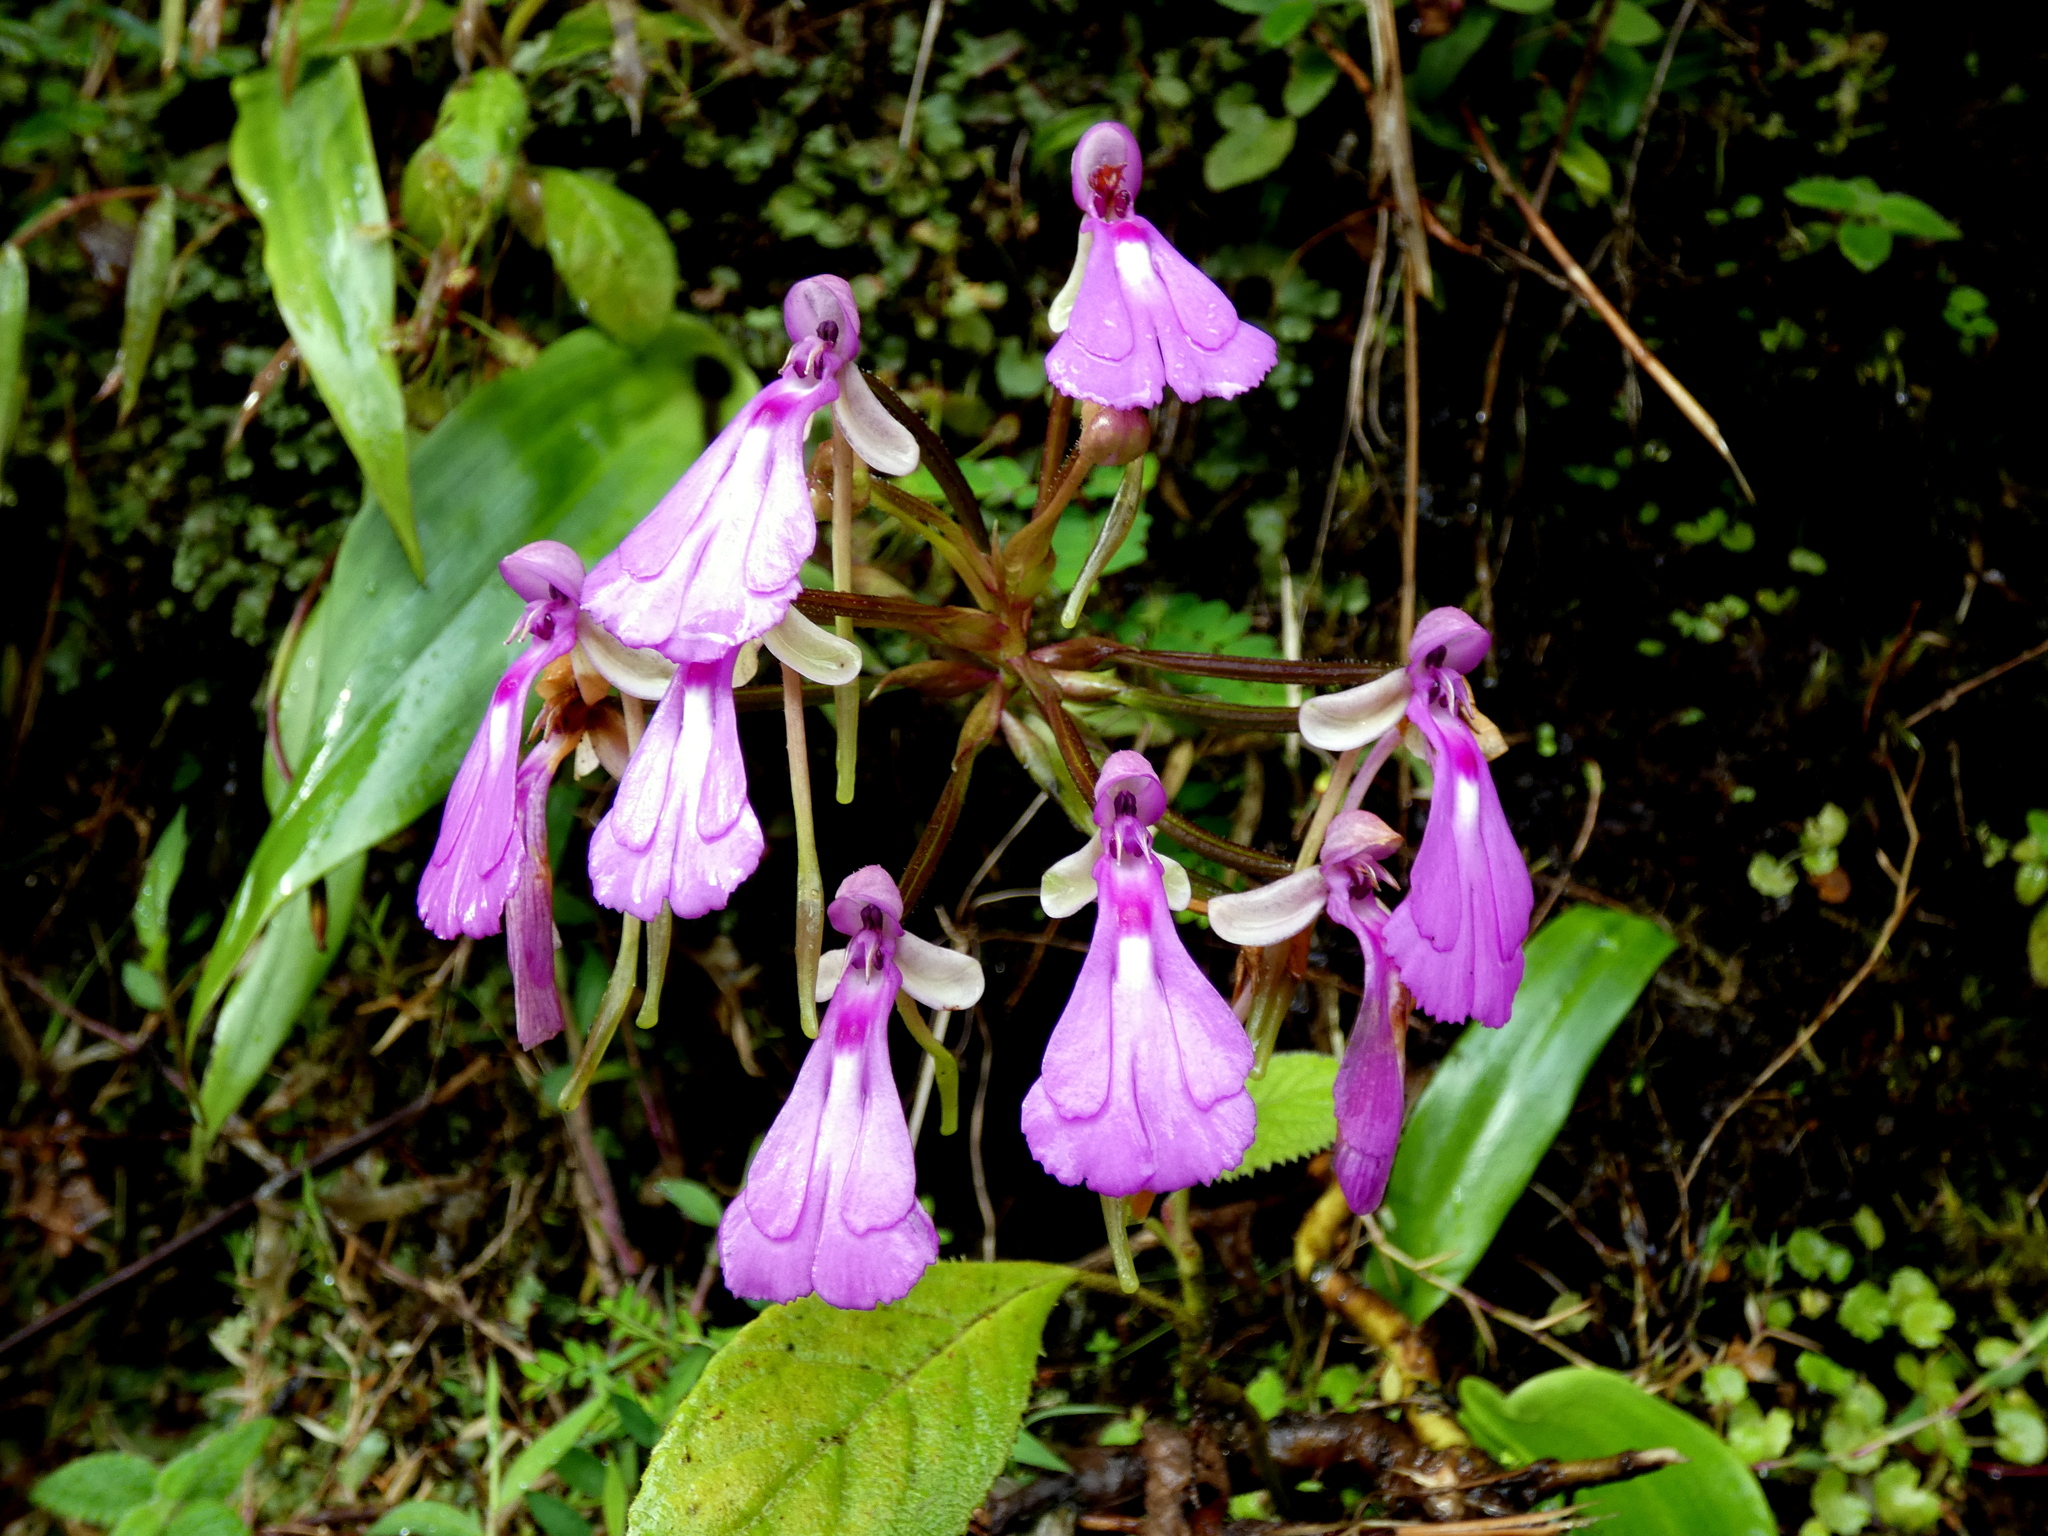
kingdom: Plantae
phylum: Tracheophyta
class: Liliopsida
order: Asparagales
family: Orchidaceae
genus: Cynorkis
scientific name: Cynorkis lowiana
